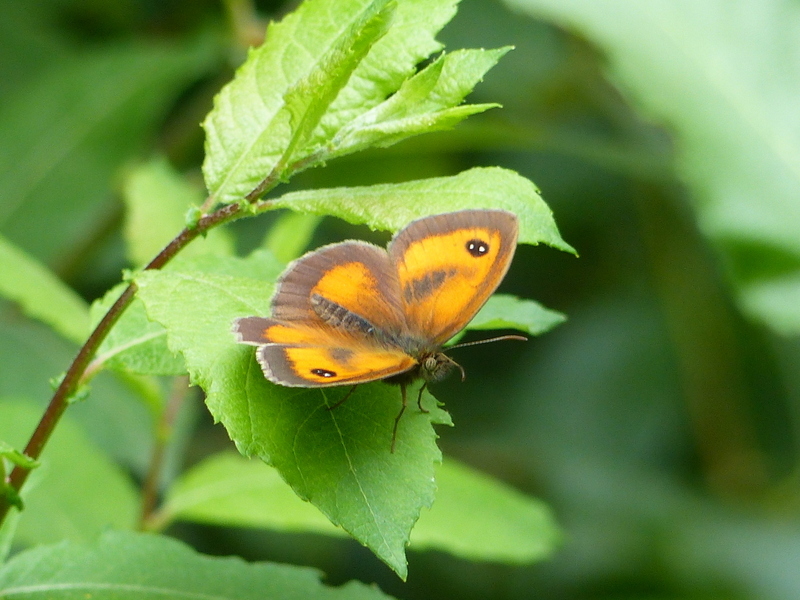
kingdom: Animalia
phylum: Arthropoda
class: Insecta
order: Lepidoptera
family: Nymphalidae
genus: Pyronia
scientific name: Pyronia tithonus
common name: Gatekeeper
